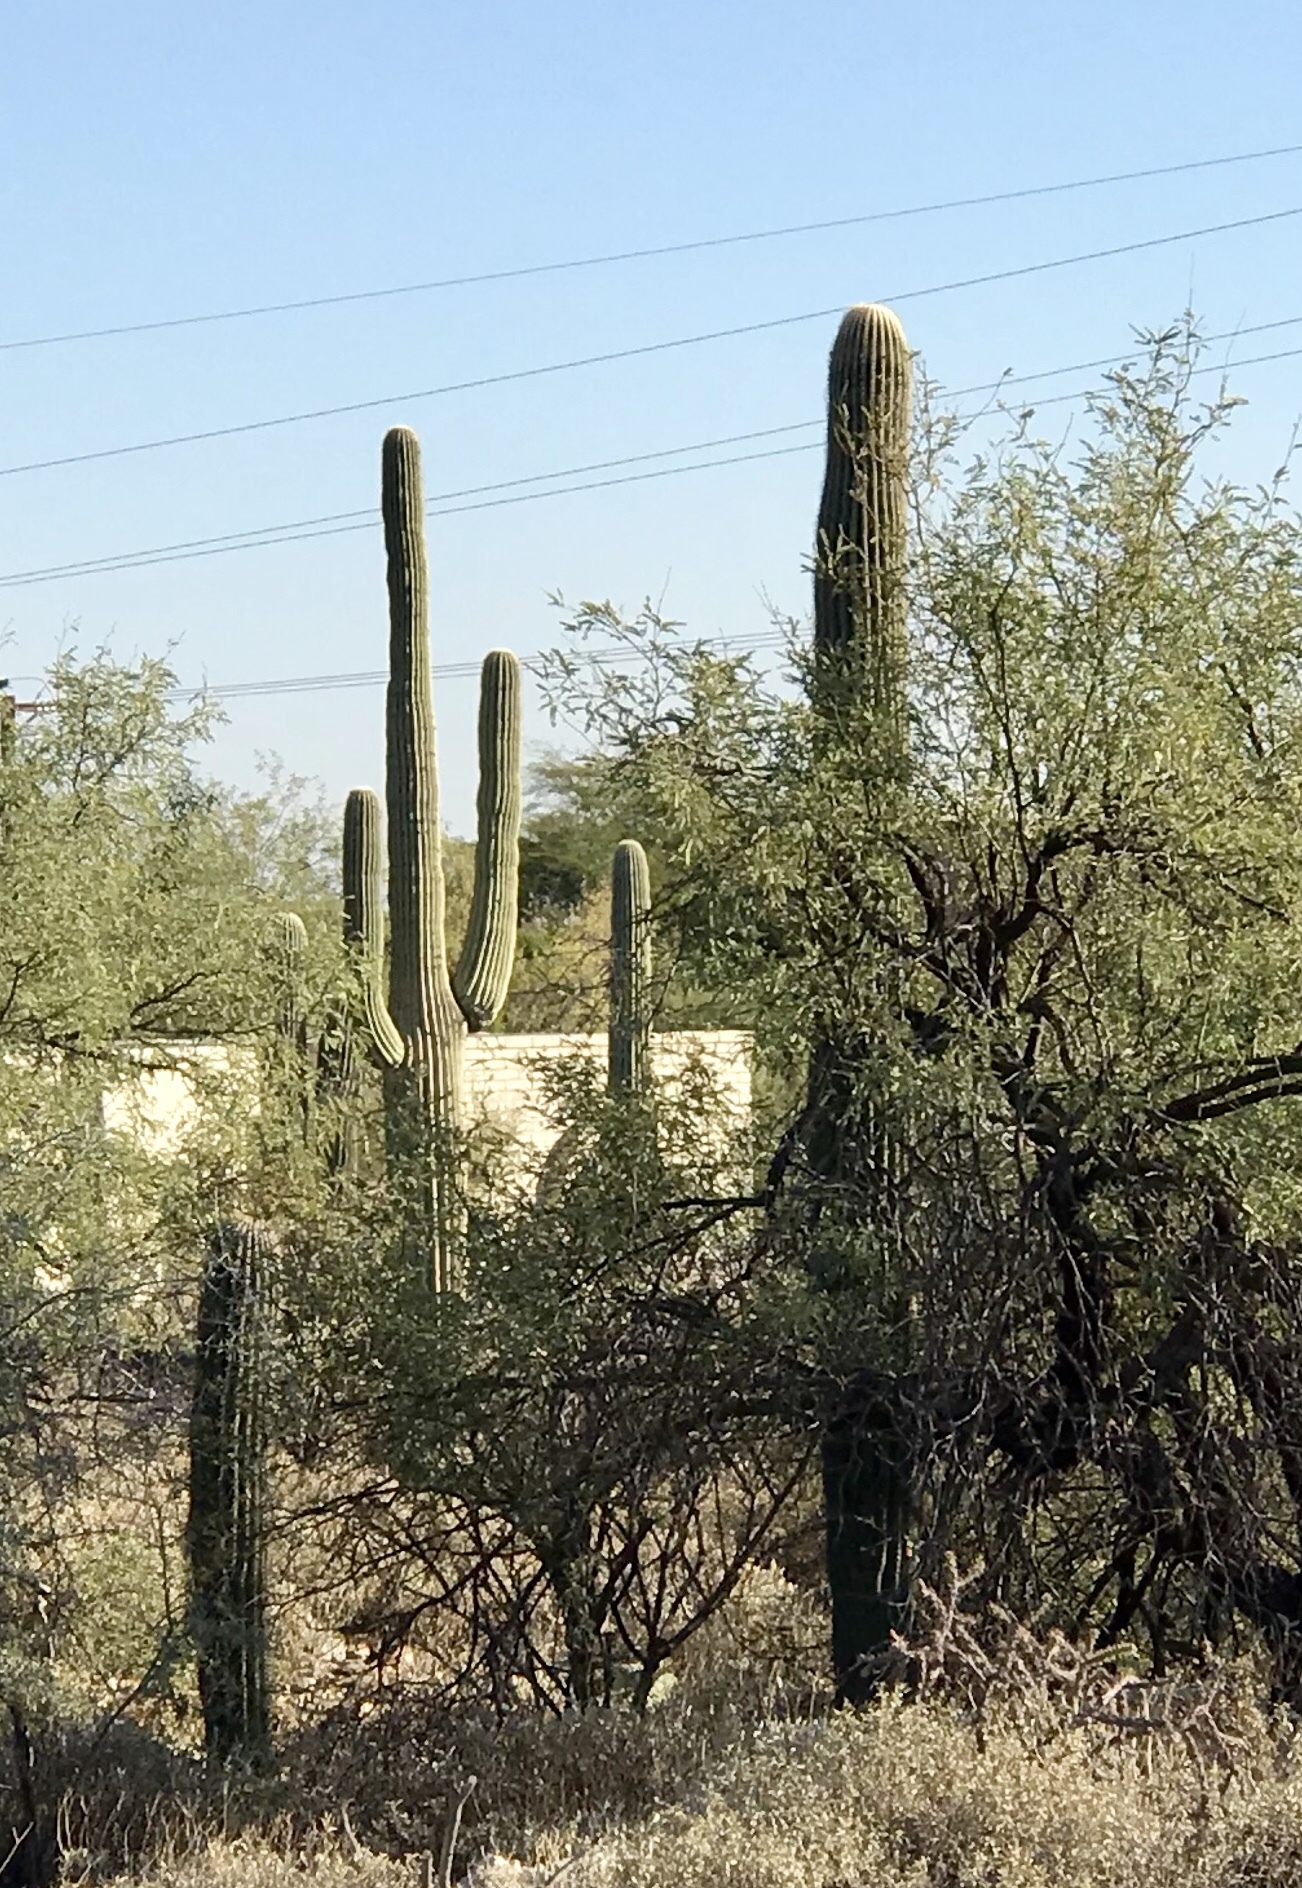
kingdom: Plantae
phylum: Tracheophyta
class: Magnoliopsida
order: Caryophyllales
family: Cactaceae
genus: Carnegiea
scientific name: Carnegiea gigantea
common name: Saguaro
